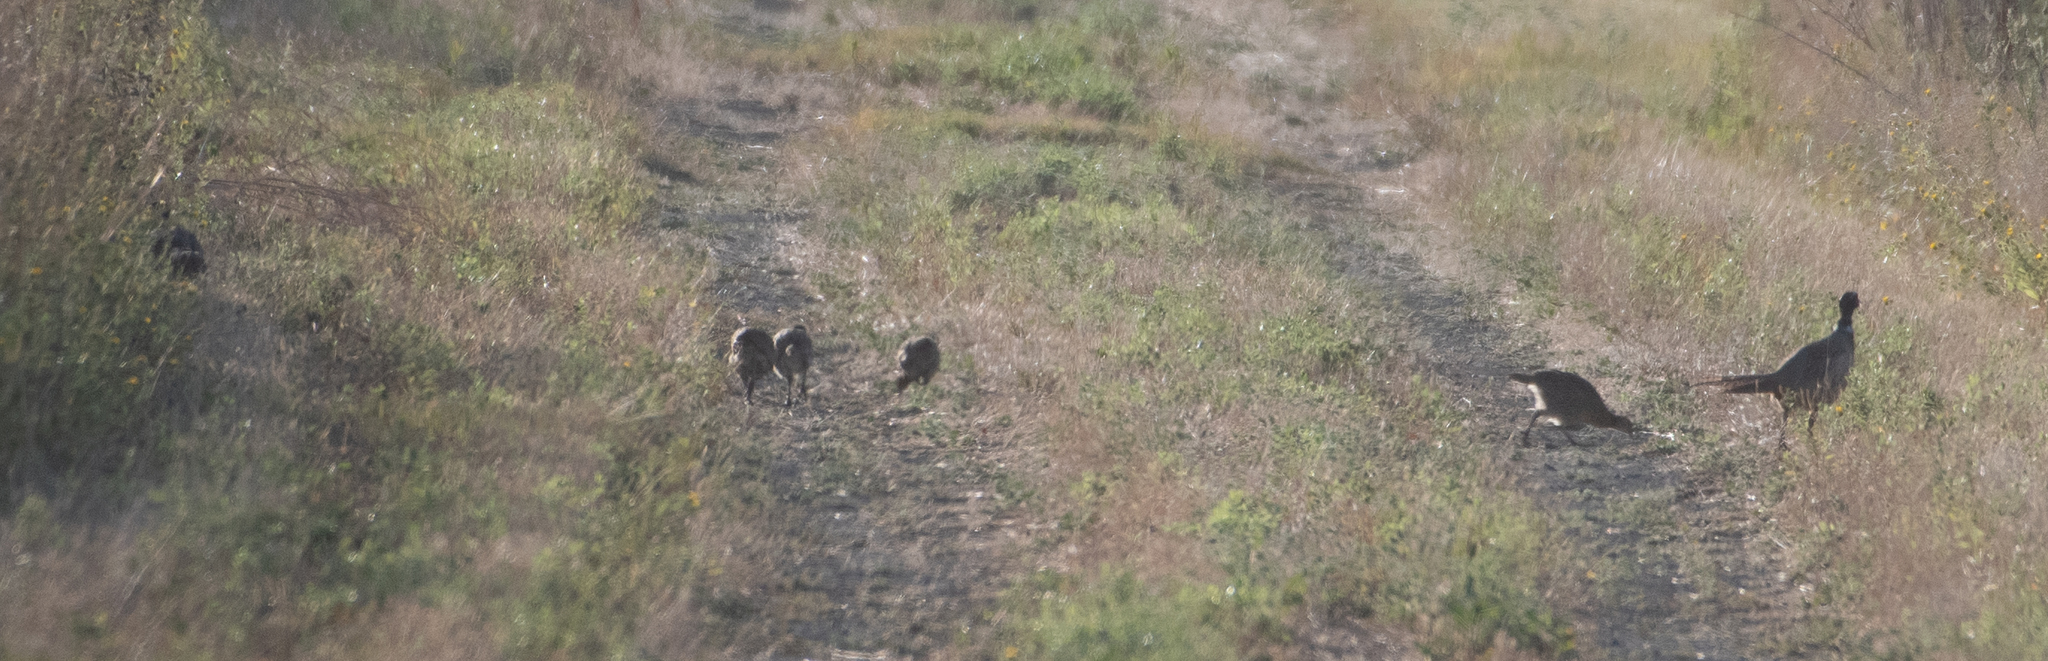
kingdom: Animalia
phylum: Chordata
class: Aves
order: Galliformes
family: Phasianidae
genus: Phasianus
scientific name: Phasianus colchicus
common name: Common pheasant
